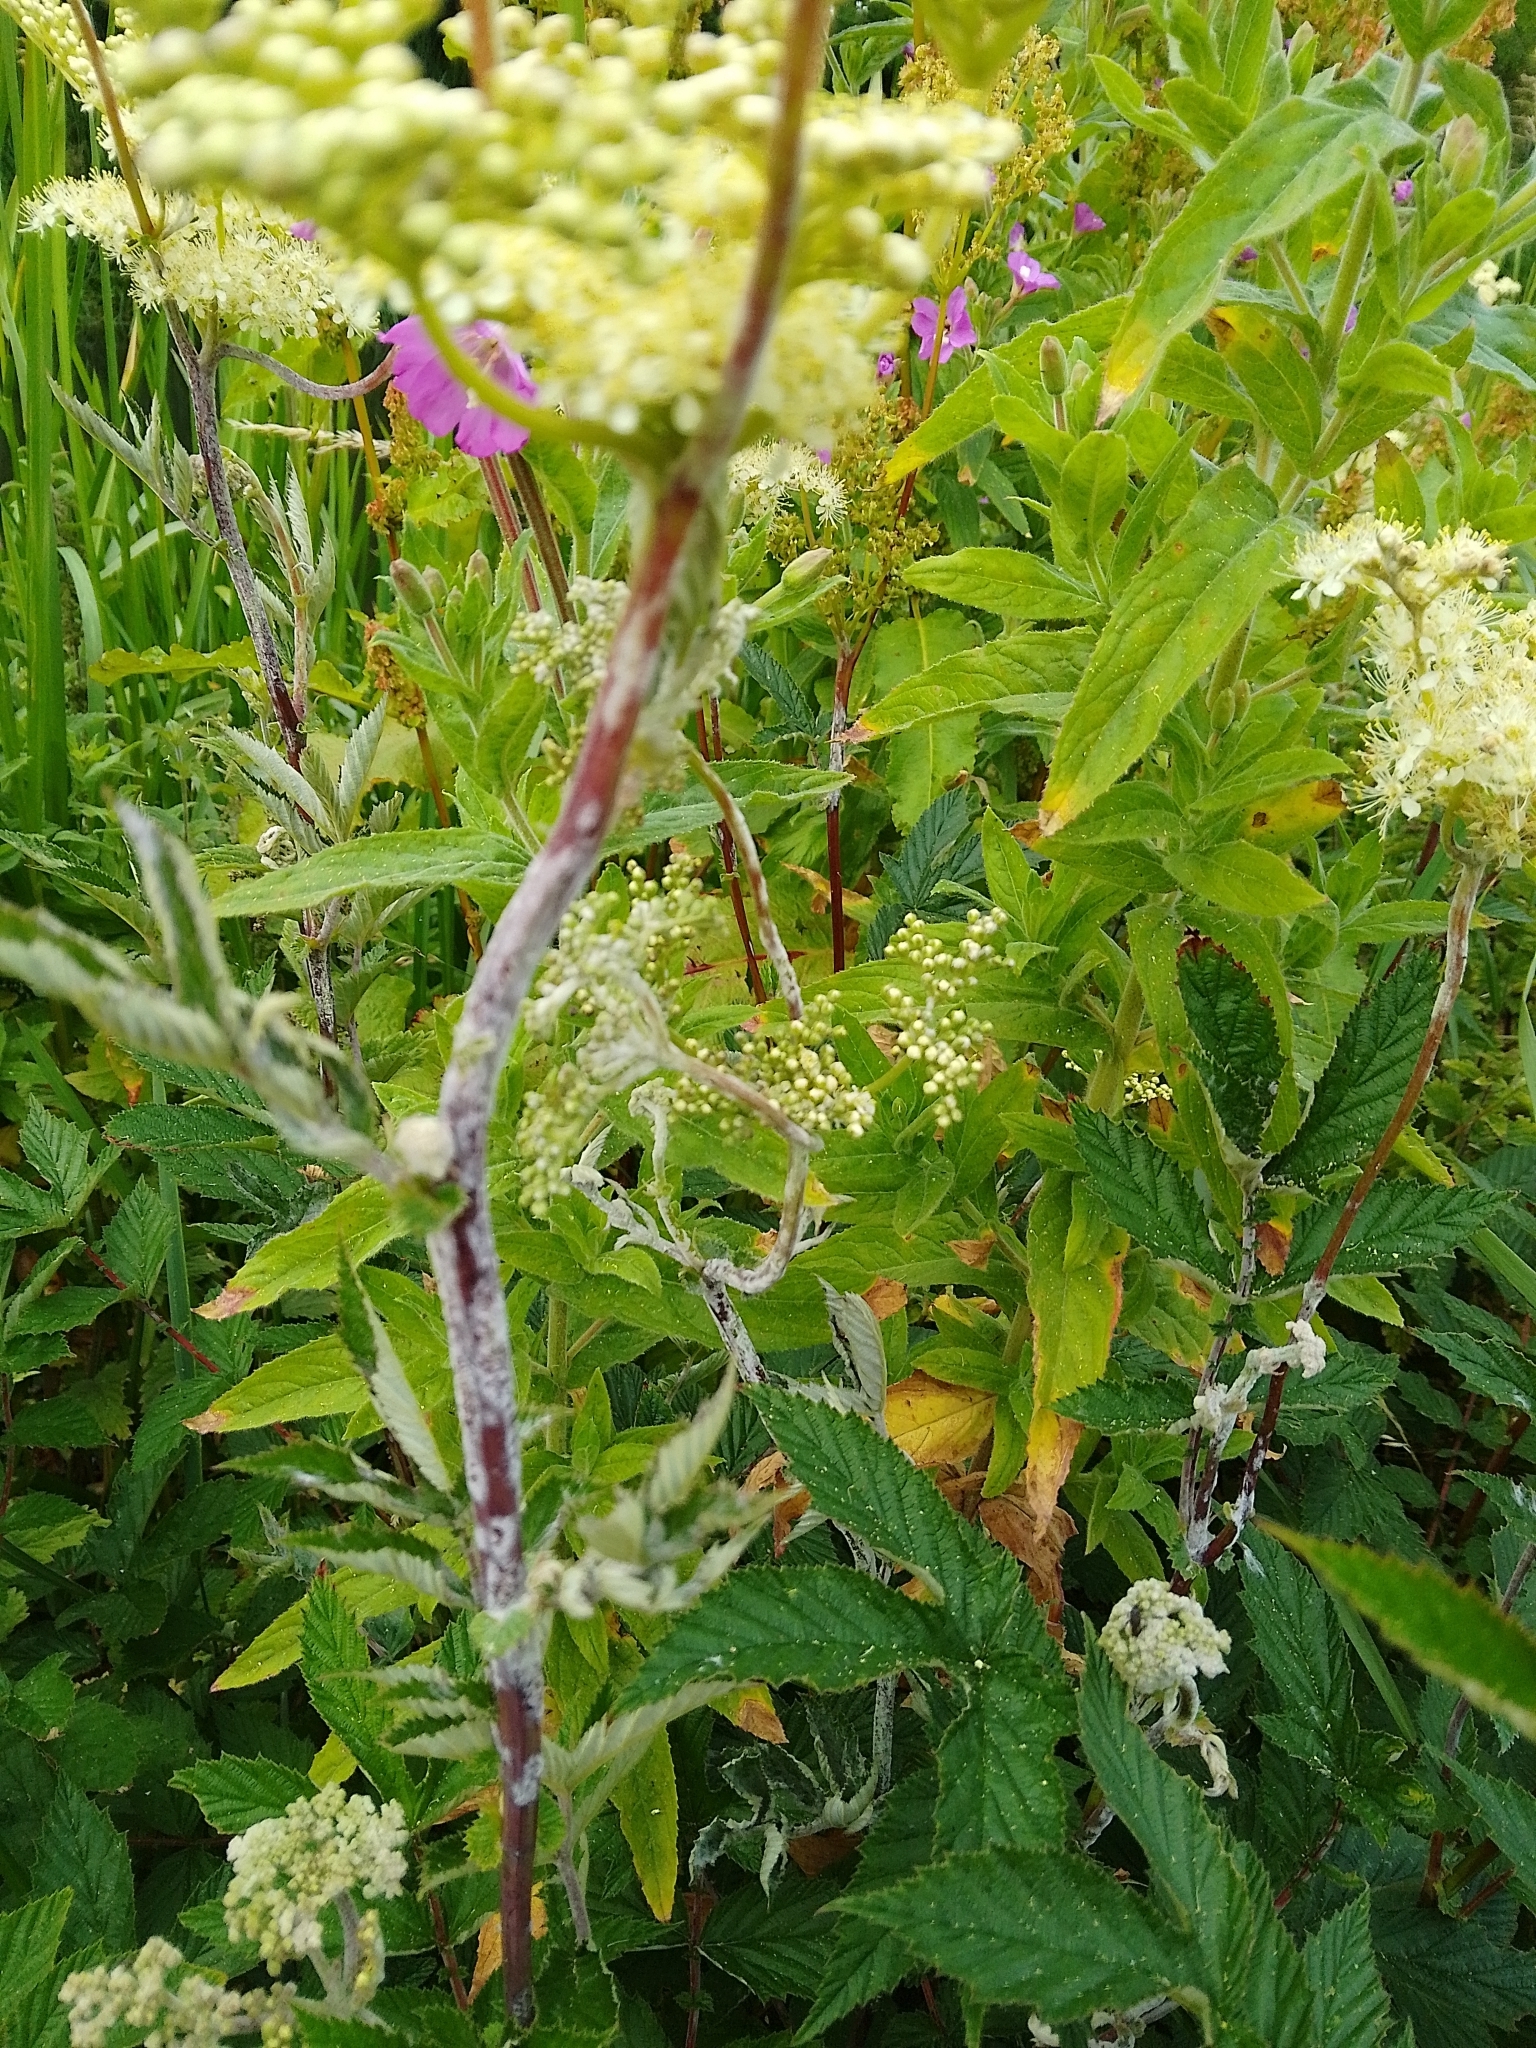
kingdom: Fungi
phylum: Ascomycota
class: Leotiomycetes
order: Helotiales
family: Erysiphaceae
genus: Podosphaera
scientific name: Podosphaera filipendulae
